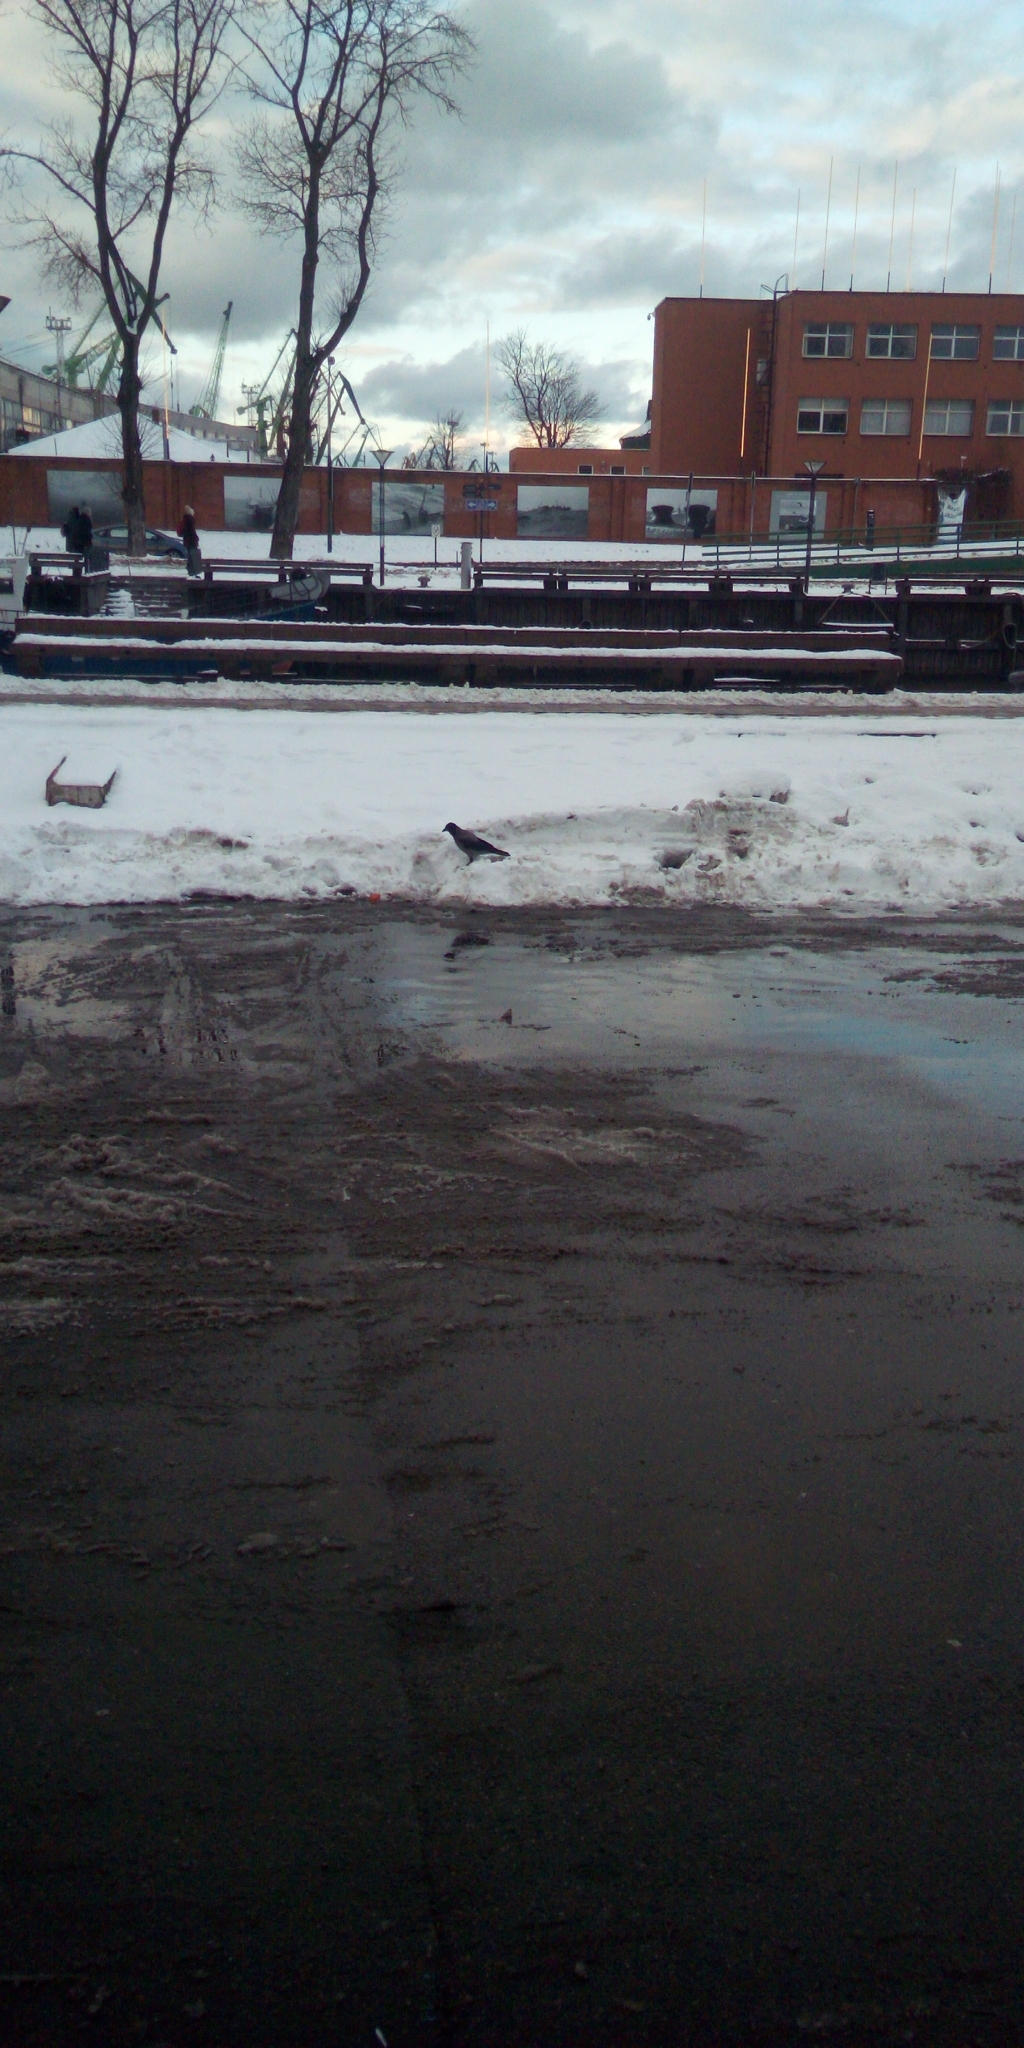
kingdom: Animalia
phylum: Chordata
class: Aves
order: Passeriformes
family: Corvidae
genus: Corvus
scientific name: Corvus cornix
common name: Hooded crow
